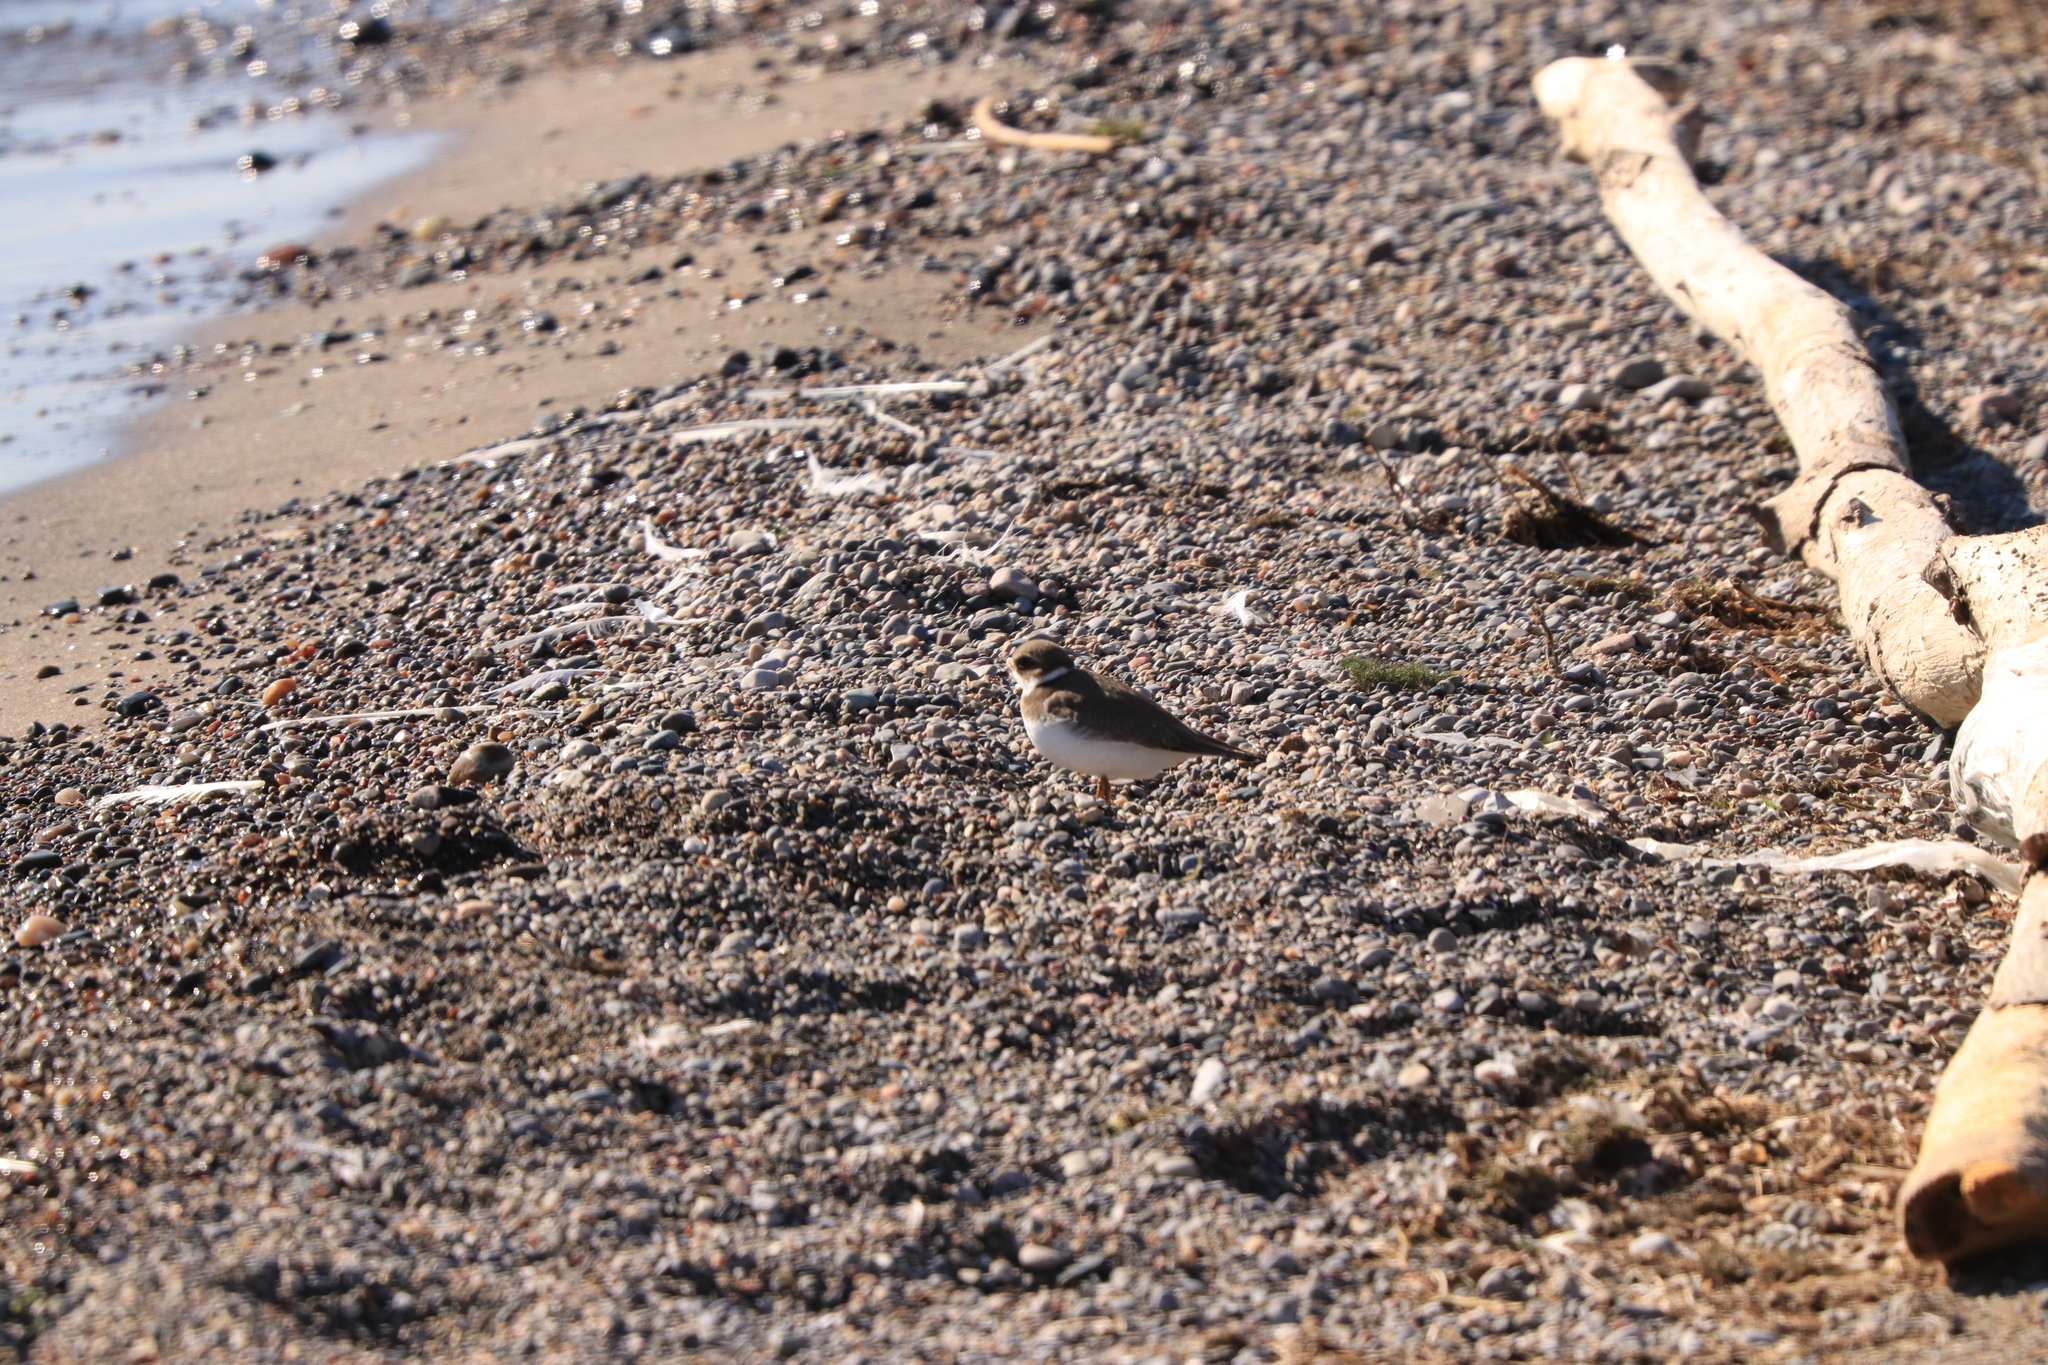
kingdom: Animalia
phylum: Chordata
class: Aves
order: Charadriiformes
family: Charadriidae
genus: Charadrius
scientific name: Charadrius semipalmatus
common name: Semipalmated plover
